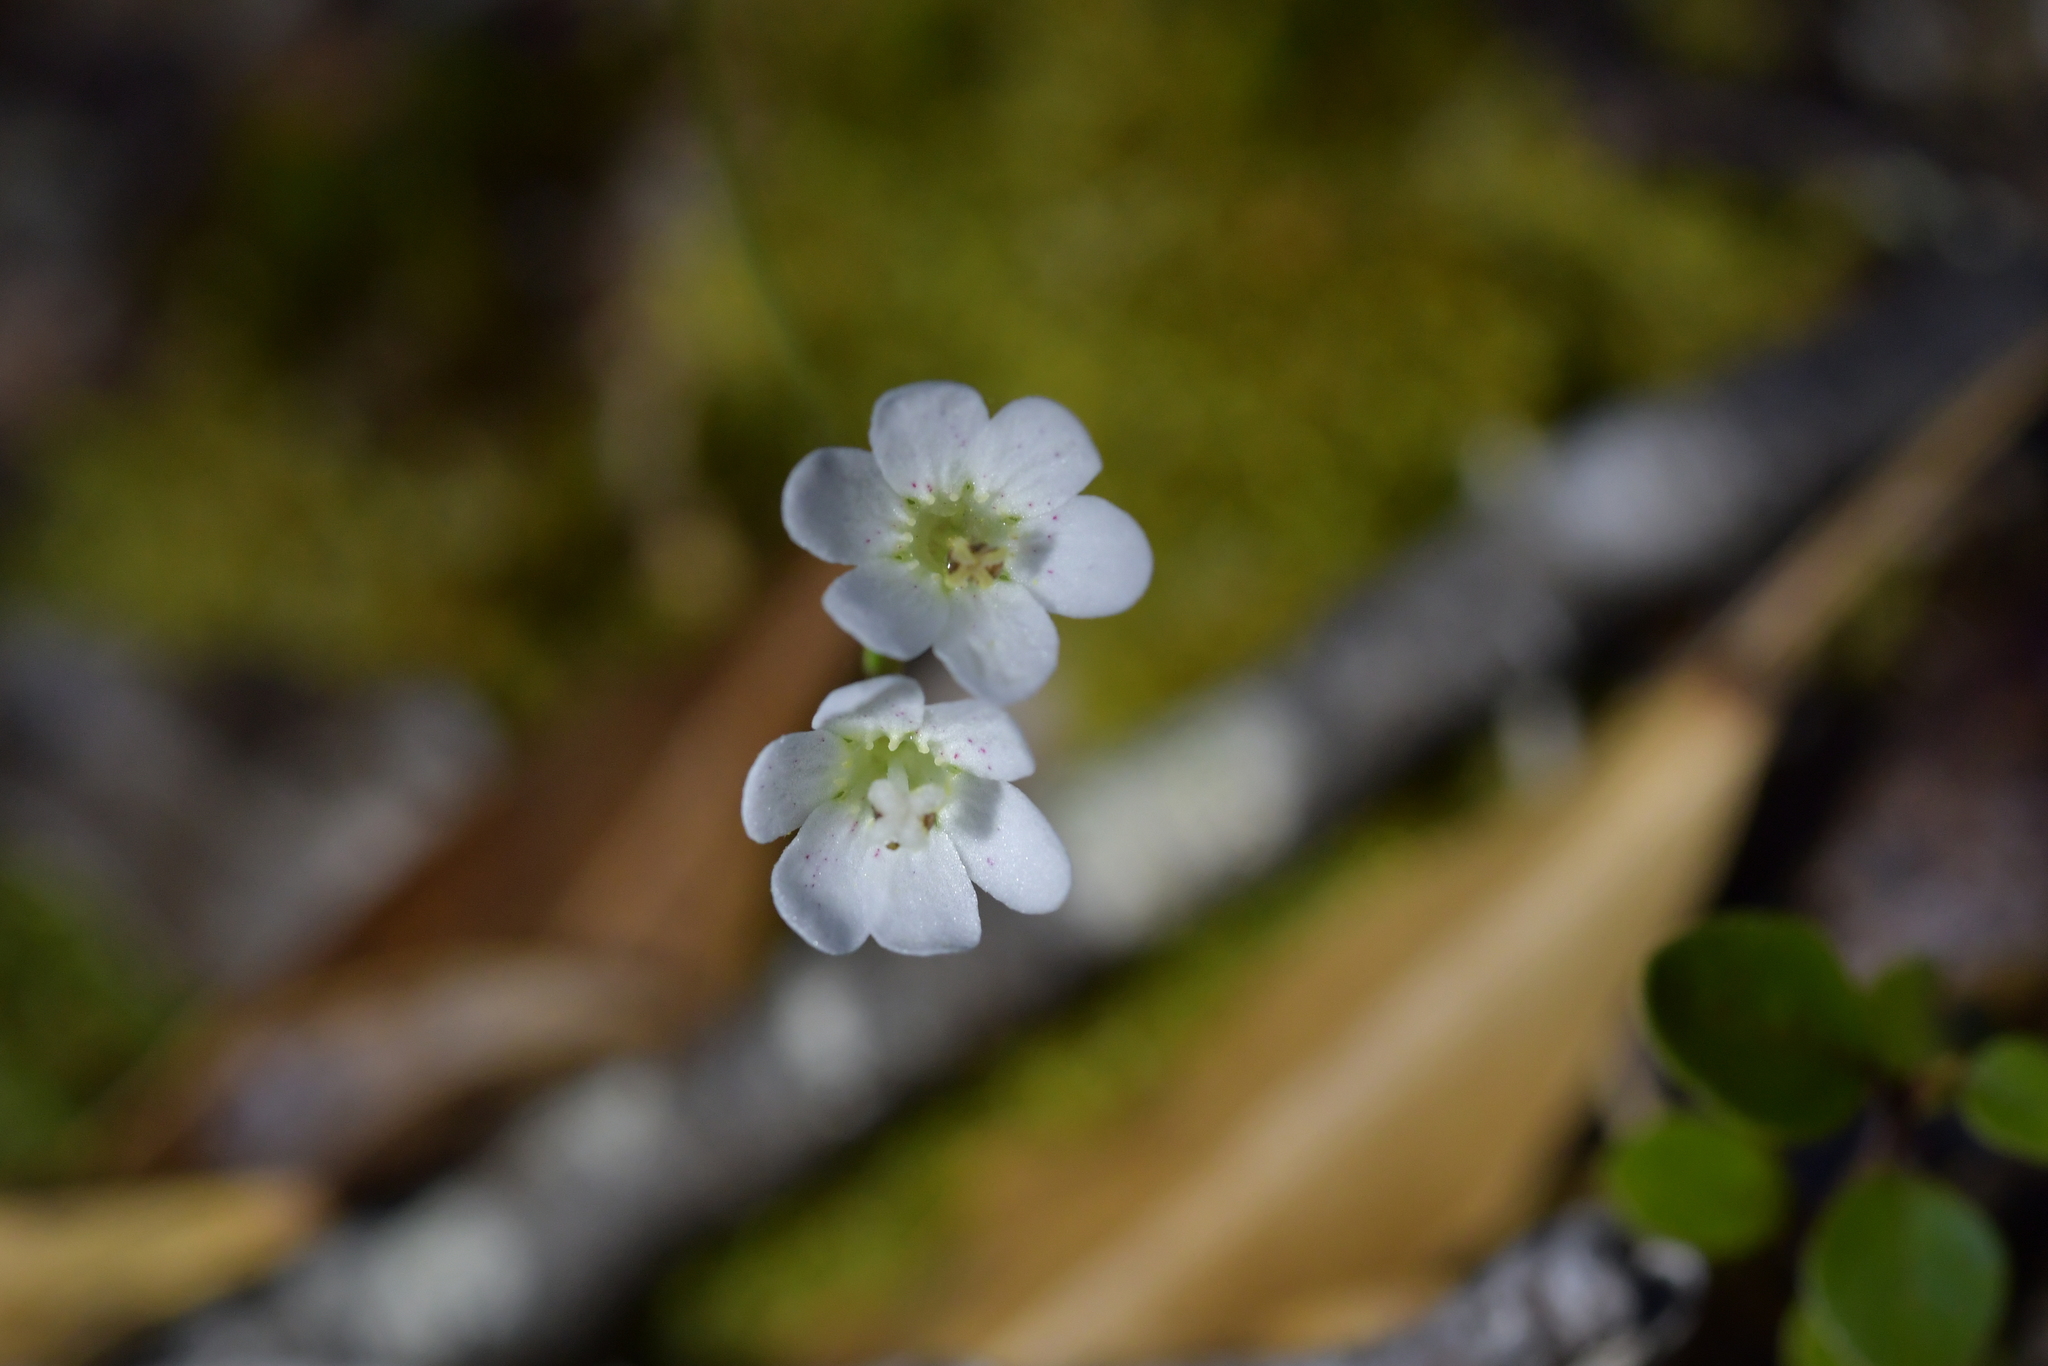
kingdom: Plantae
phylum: Tracheophyta
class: Magnoliopsida
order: Asterales
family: Stylidiaceae
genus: Forstera
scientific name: Forstera tenella
